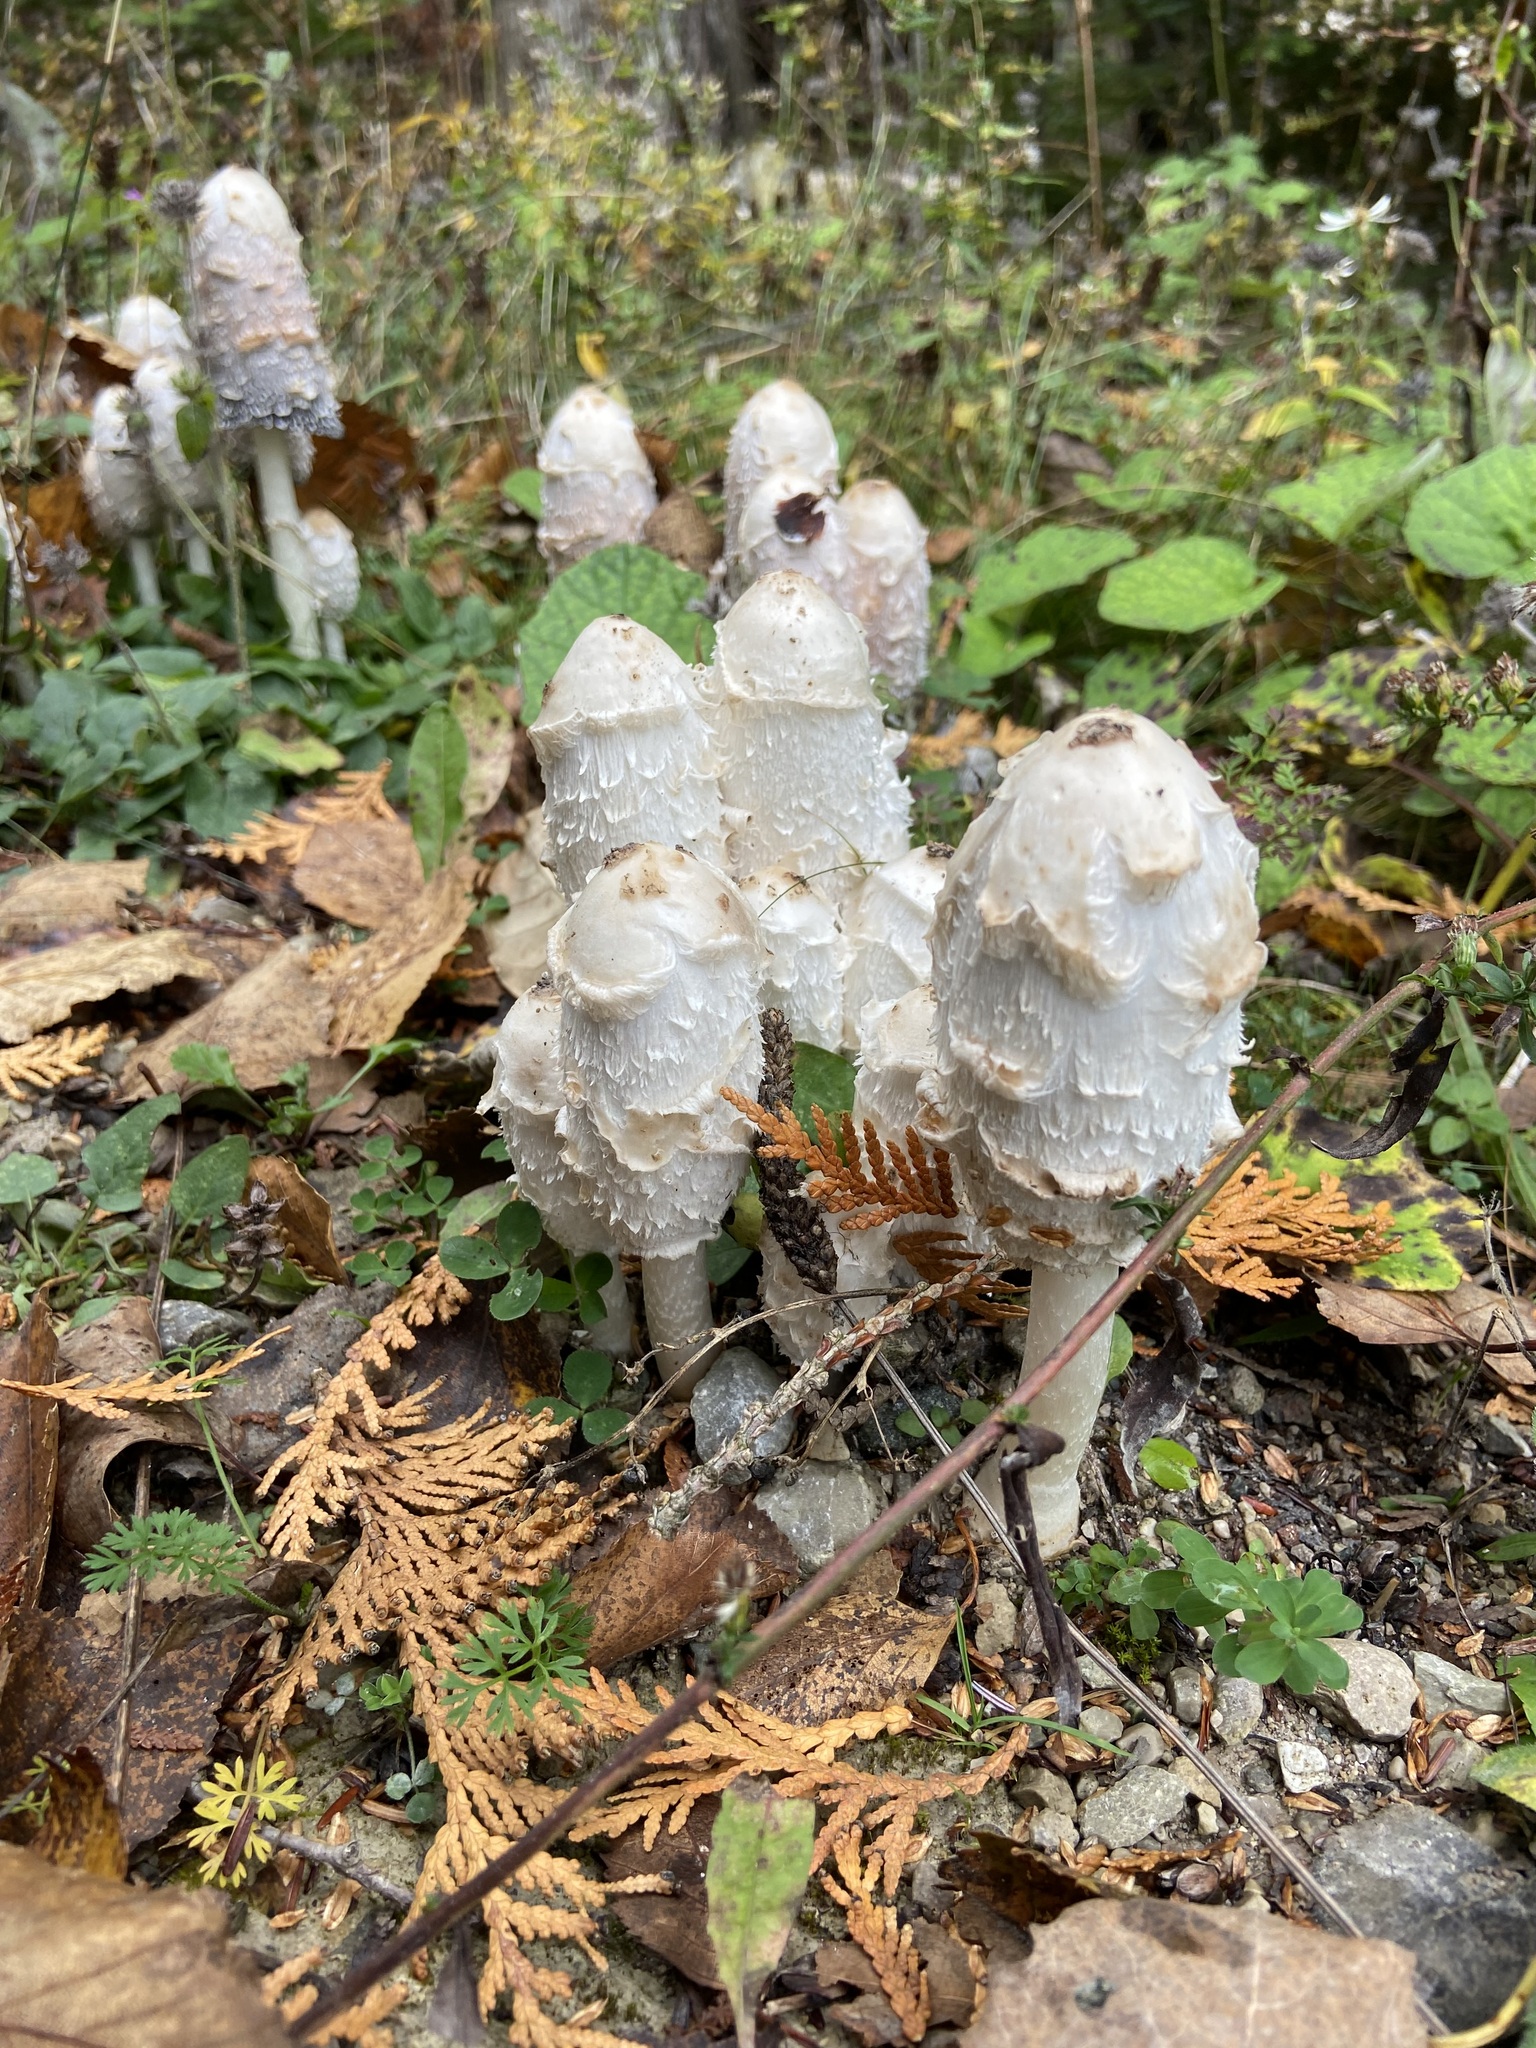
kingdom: Fungi
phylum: Basidiomycota
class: Agaricomycetes
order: Agaricales
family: Agaricaceae
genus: Coprinus
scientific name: Coprinus comatus
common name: Lawyer's wig
